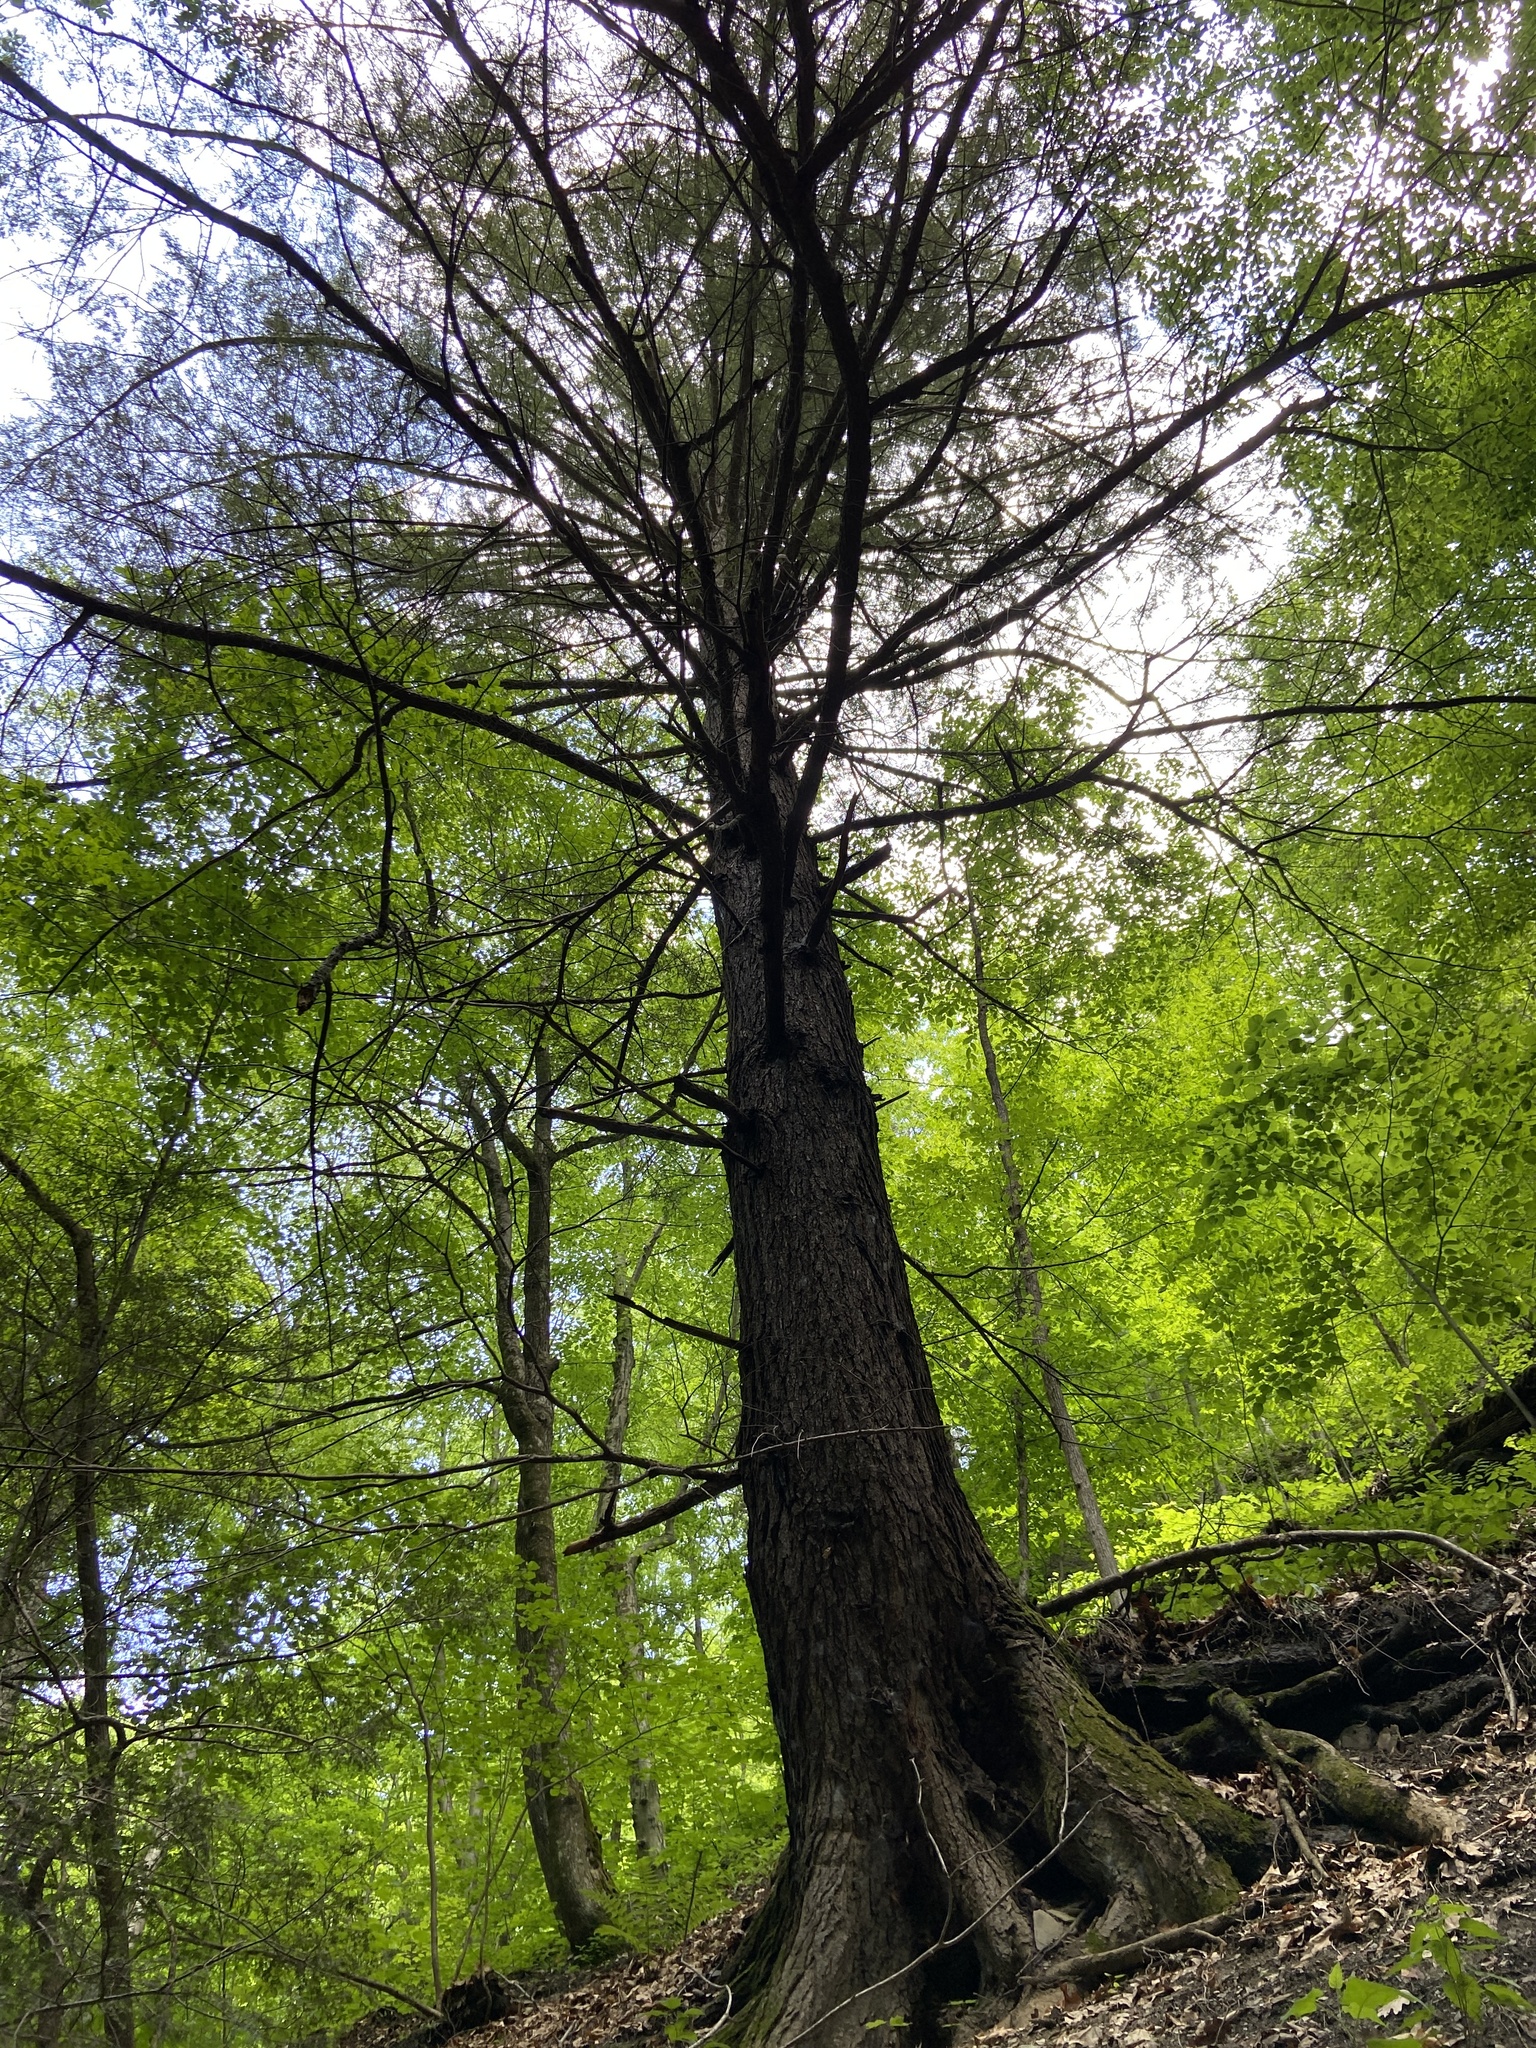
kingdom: Plantae
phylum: Tracheophyta
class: Pinopsida
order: Pinales
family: Pinaceae
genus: Tsuga
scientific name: Tsuga canadensis
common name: Eastern hemlock
